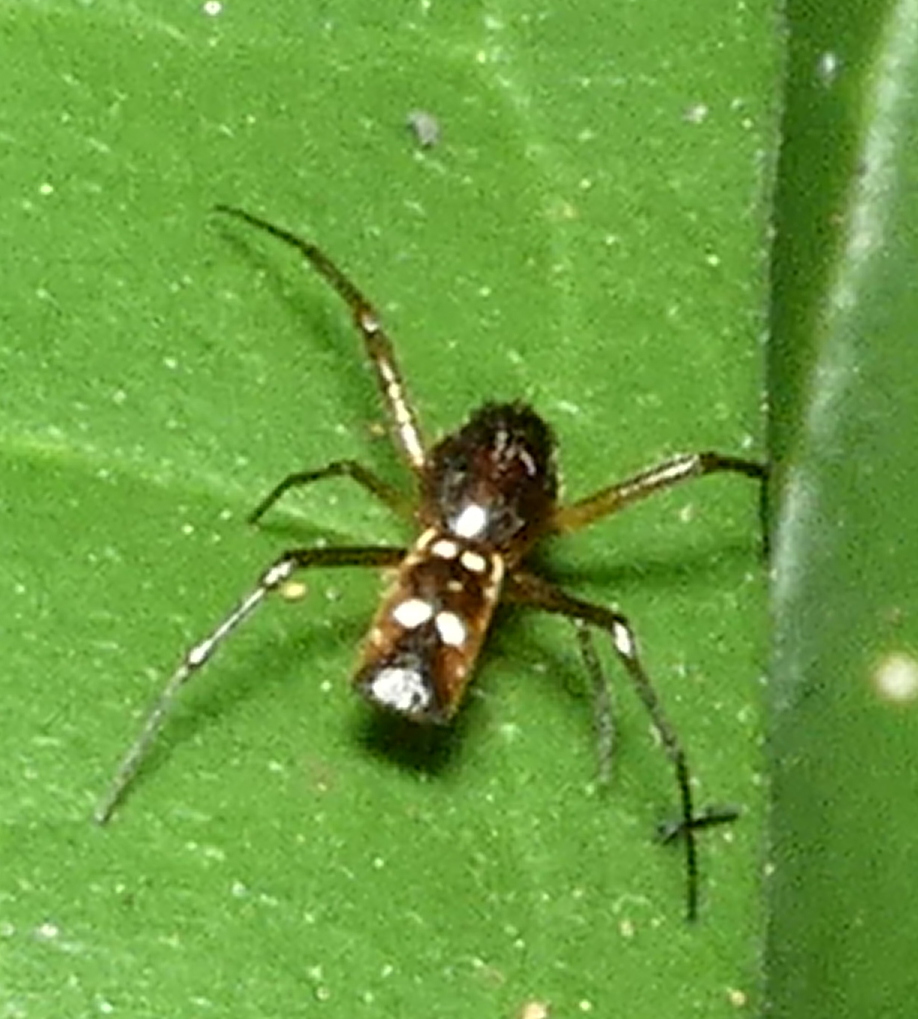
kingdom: Animalia
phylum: Arthropoda
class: Arachnida
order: Araneae
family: Araneidae
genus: Micrathena
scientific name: Micrathena fissispina
